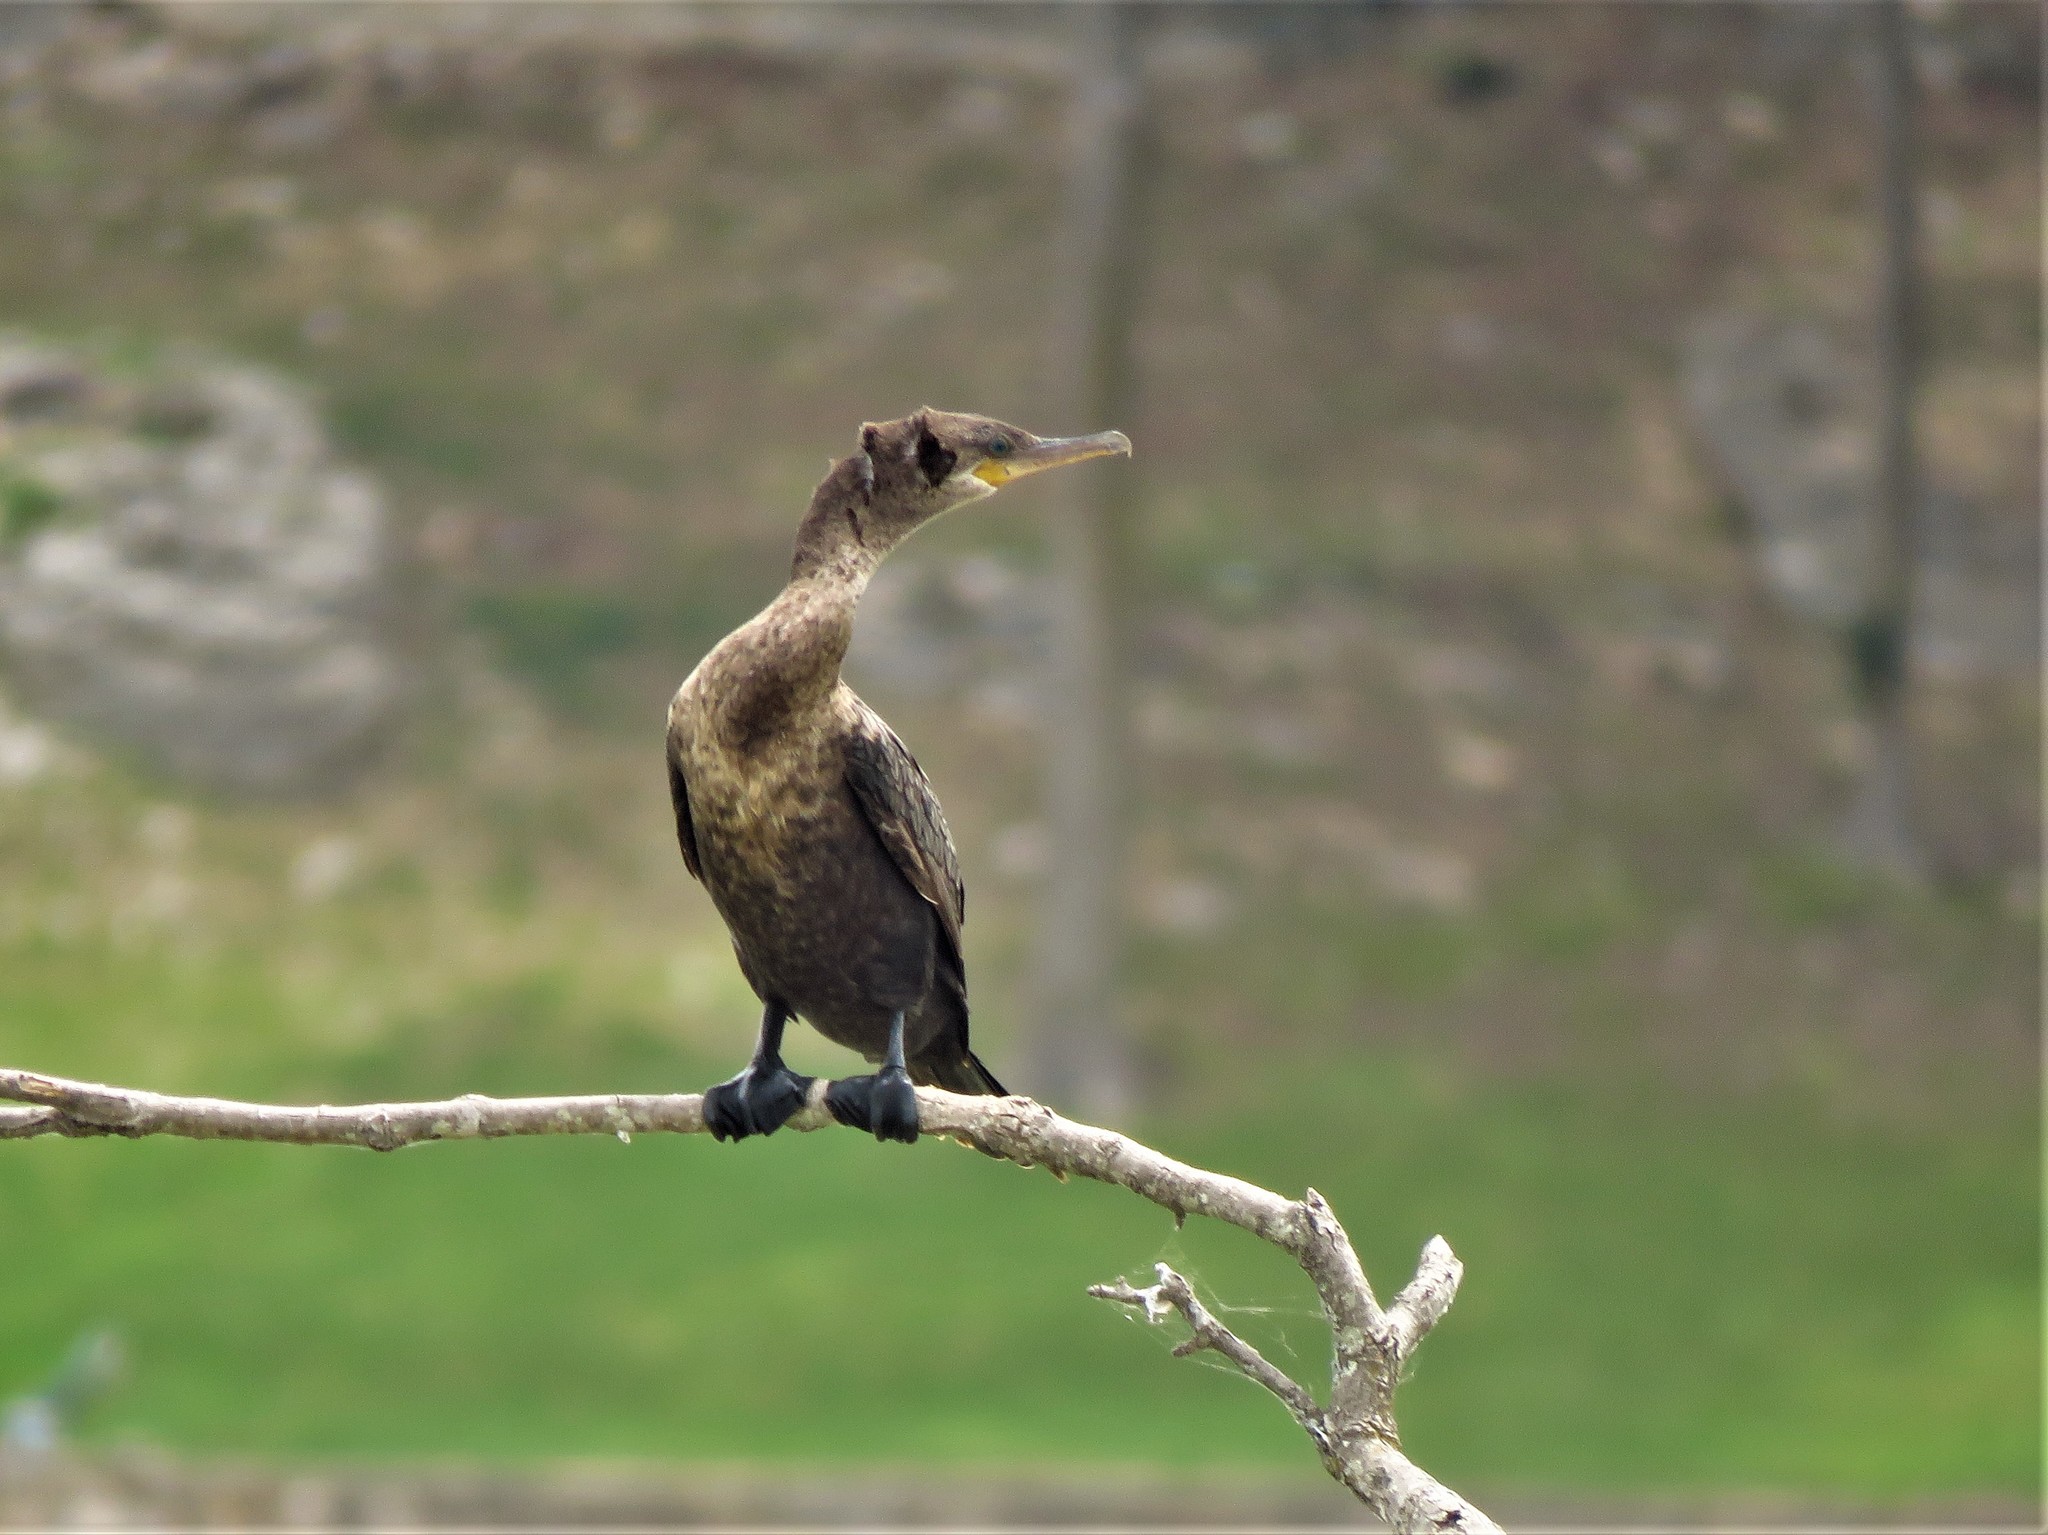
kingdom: Animalia
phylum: Chordata
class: Aves
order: Suliformes
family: Phalacrocoracidae
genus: Phalacrocorax
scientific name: Phalacrocorax brasilianus
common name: Neotropic cormorant
